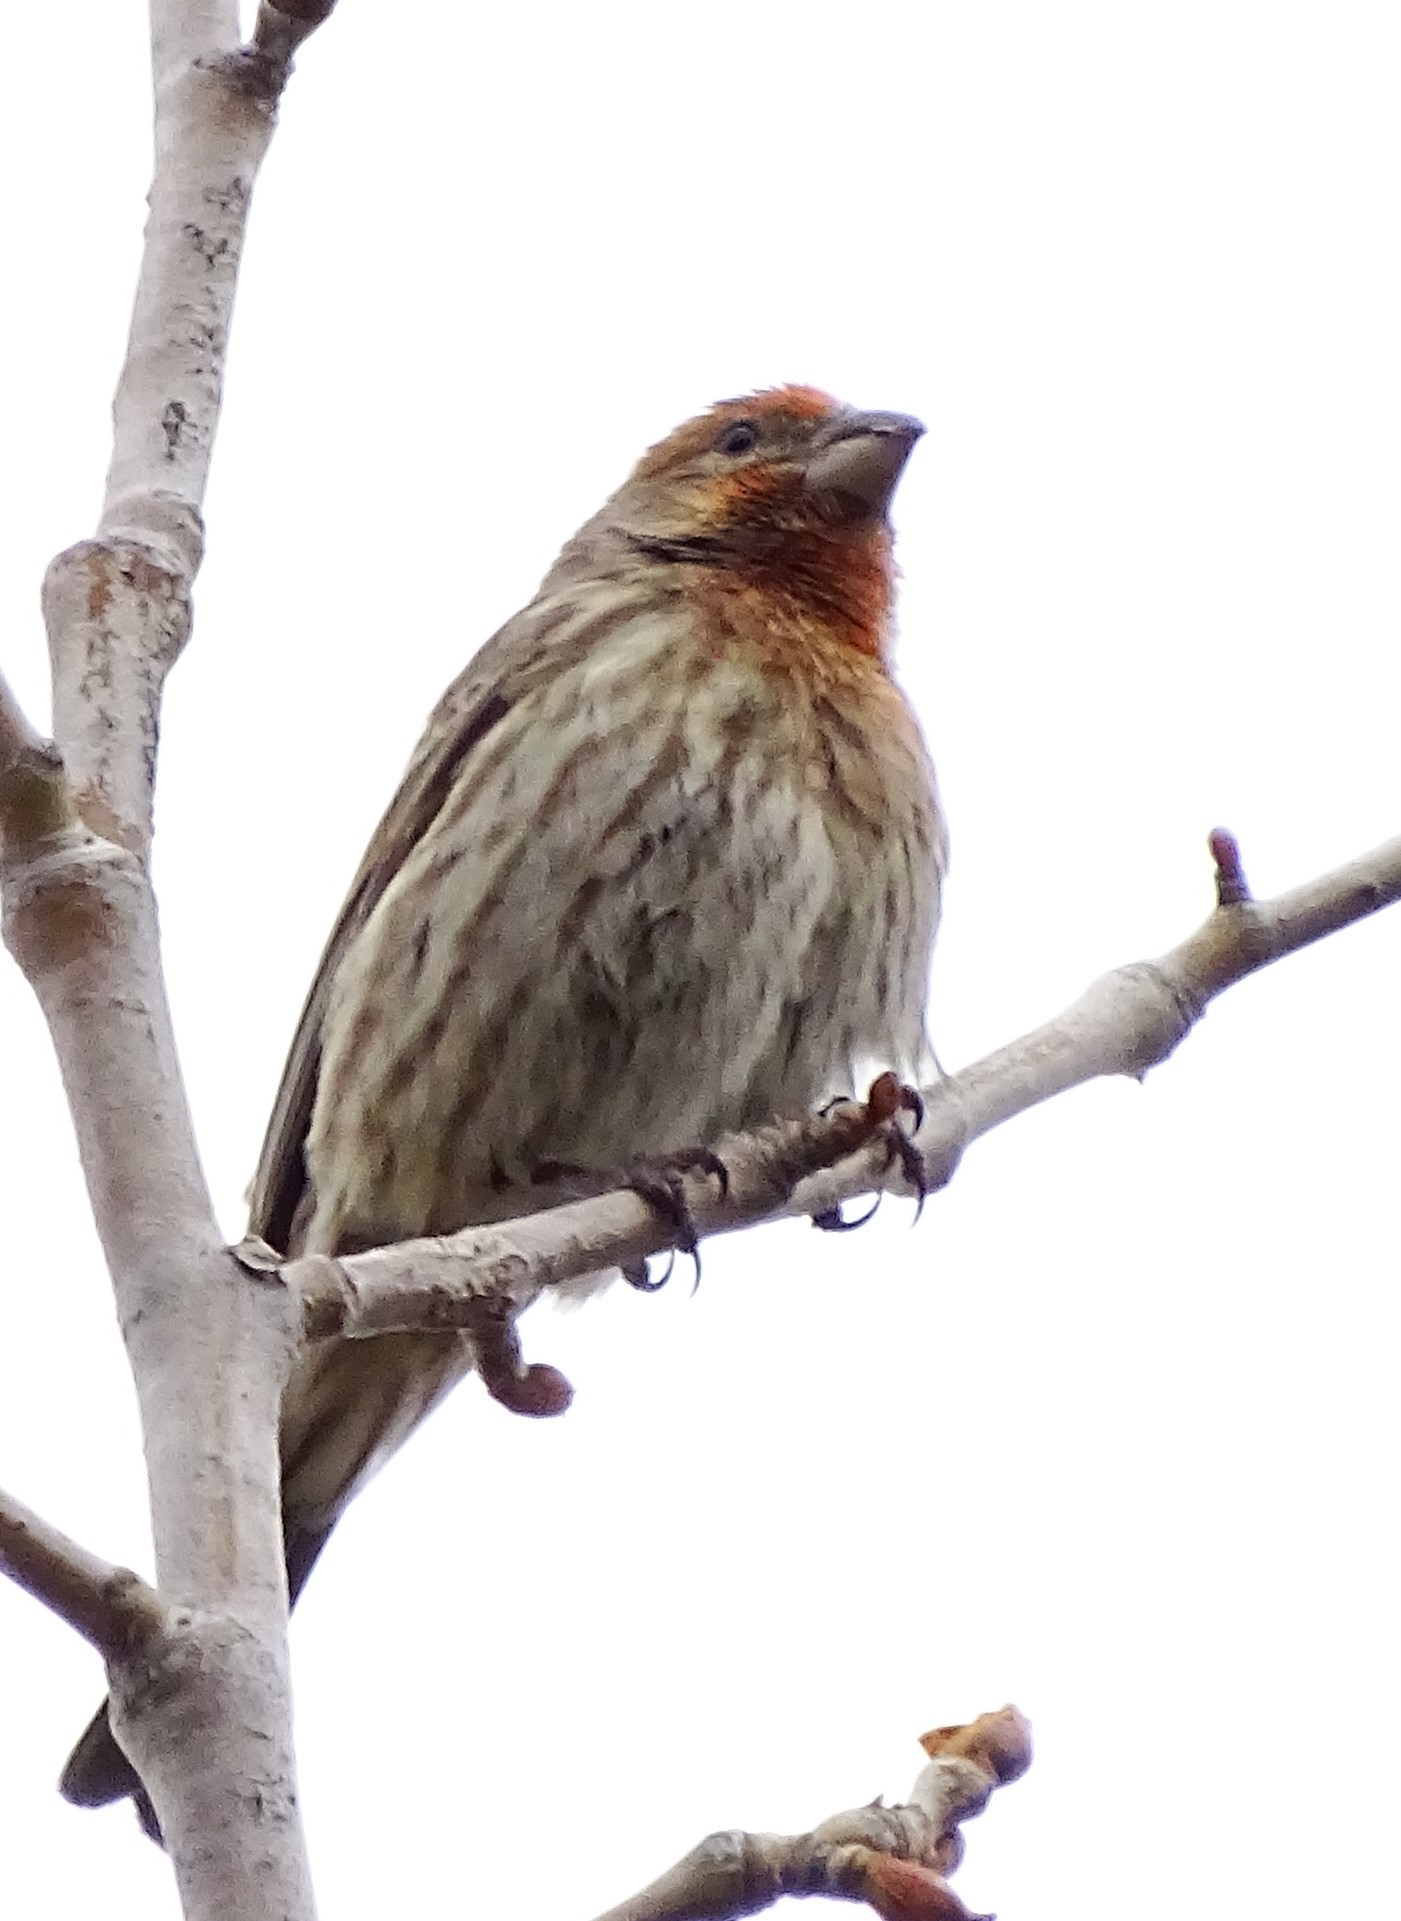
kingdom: Animalia
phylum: Chordata
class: Aves
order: Passeriformes
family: Fringillidae
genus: Haemorhous
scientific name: Haemorhous mexicanus
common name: House finch
